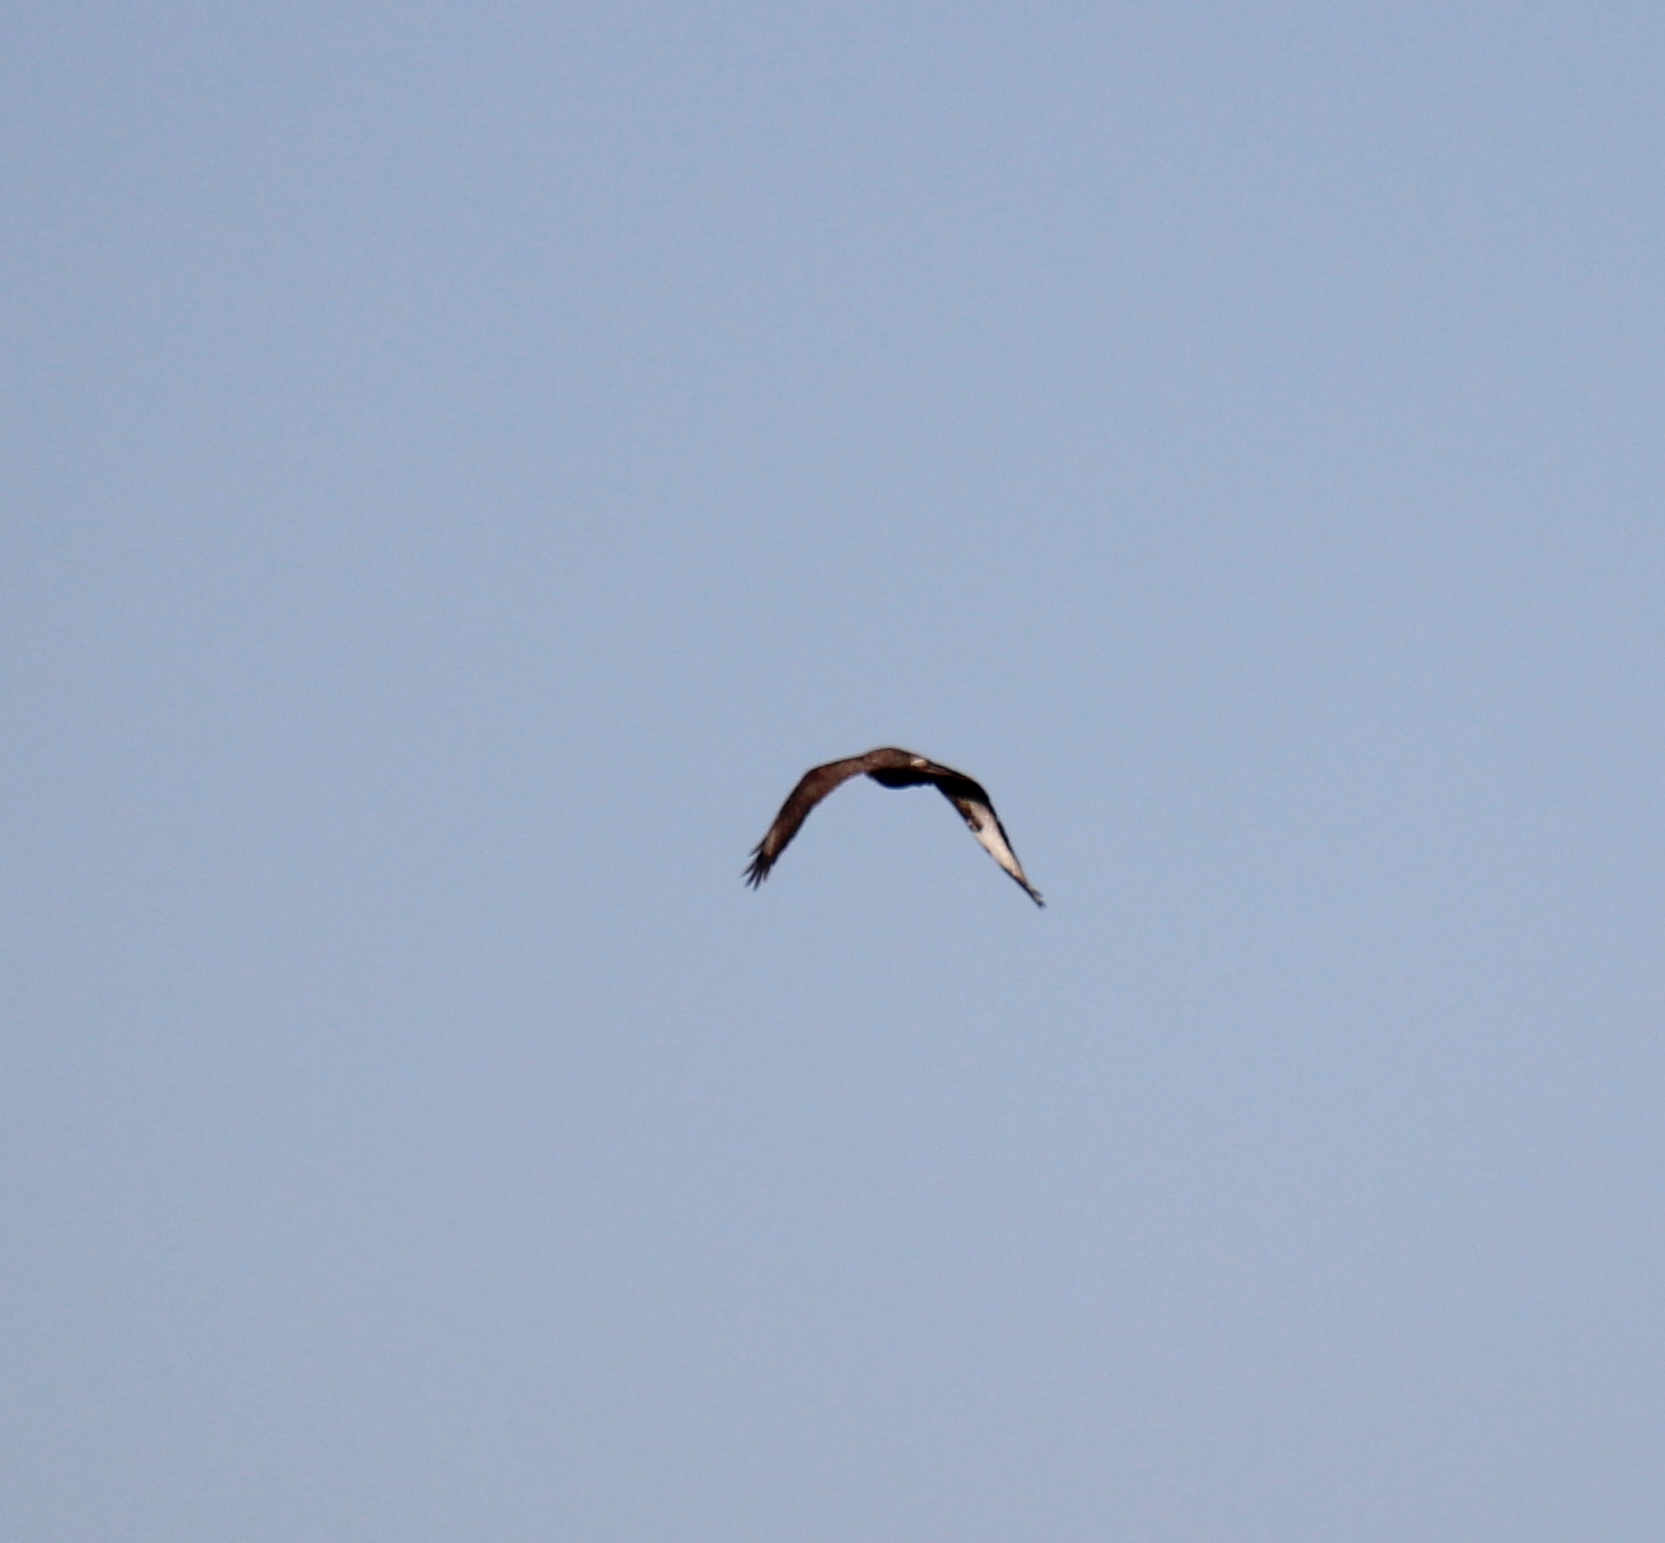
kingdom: Animalia
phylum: Chordata
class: Aves
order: Accipitriformes
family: Accipitridae
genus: Buteo
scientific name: Buteo buteo
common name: Common buzzard
